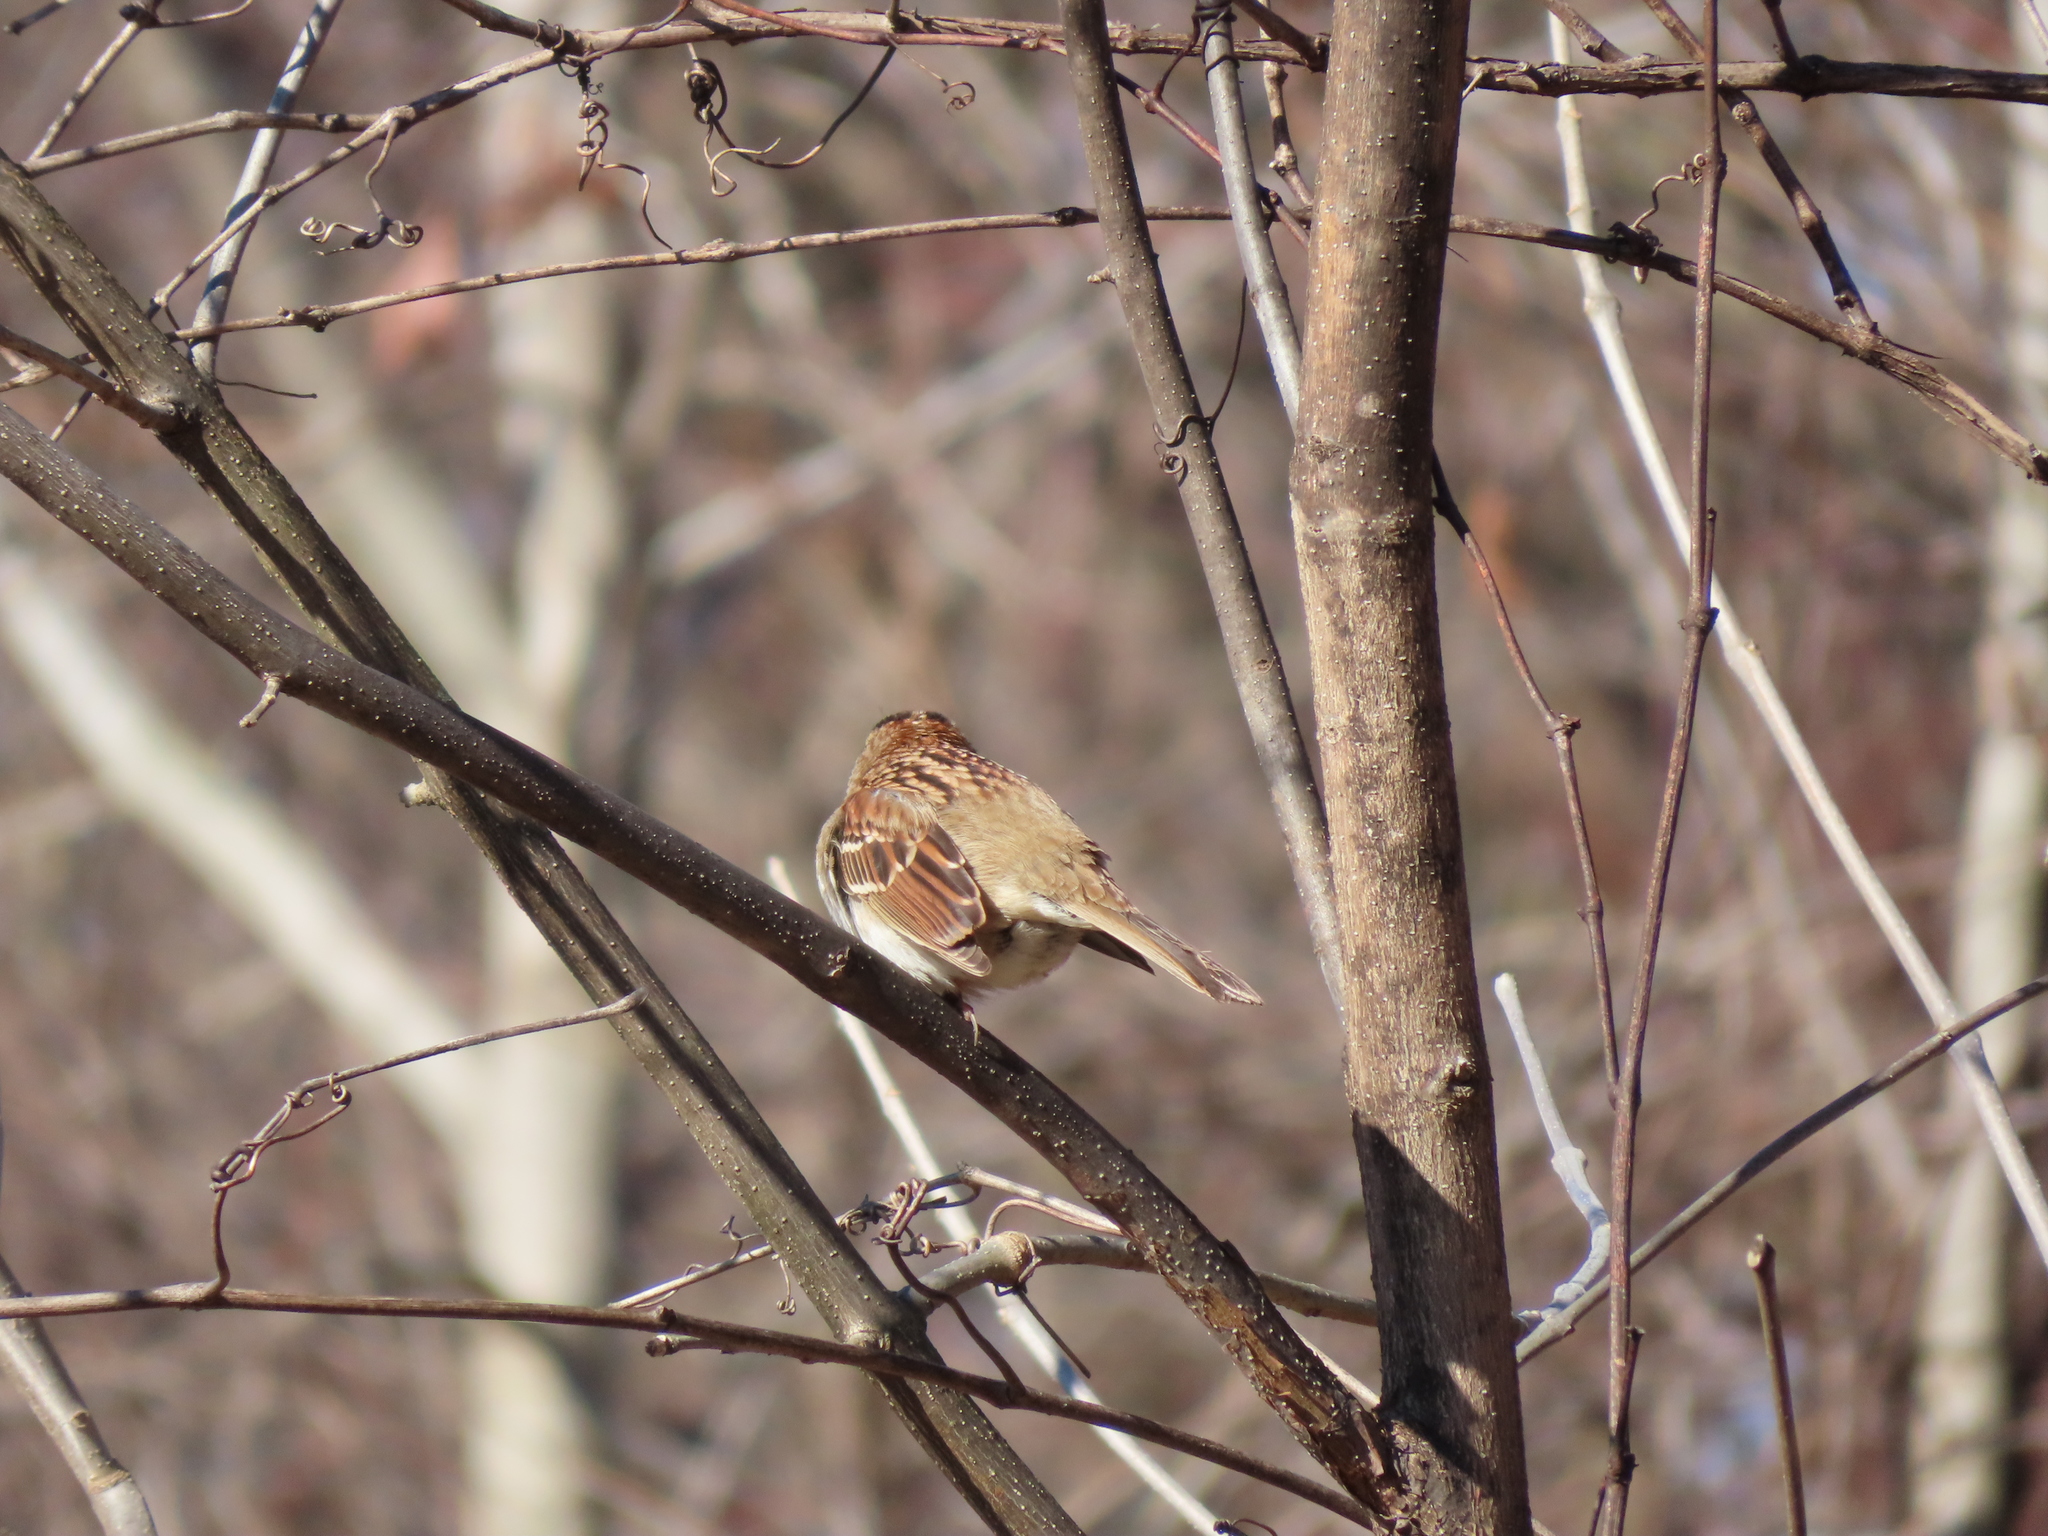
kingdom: Animalia
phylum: Chordata
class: Aves
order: Passeriformes
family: Passerellidae
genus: Zonotrichia
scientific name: Zonotrichia albicollis
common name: White-throated sparrow
